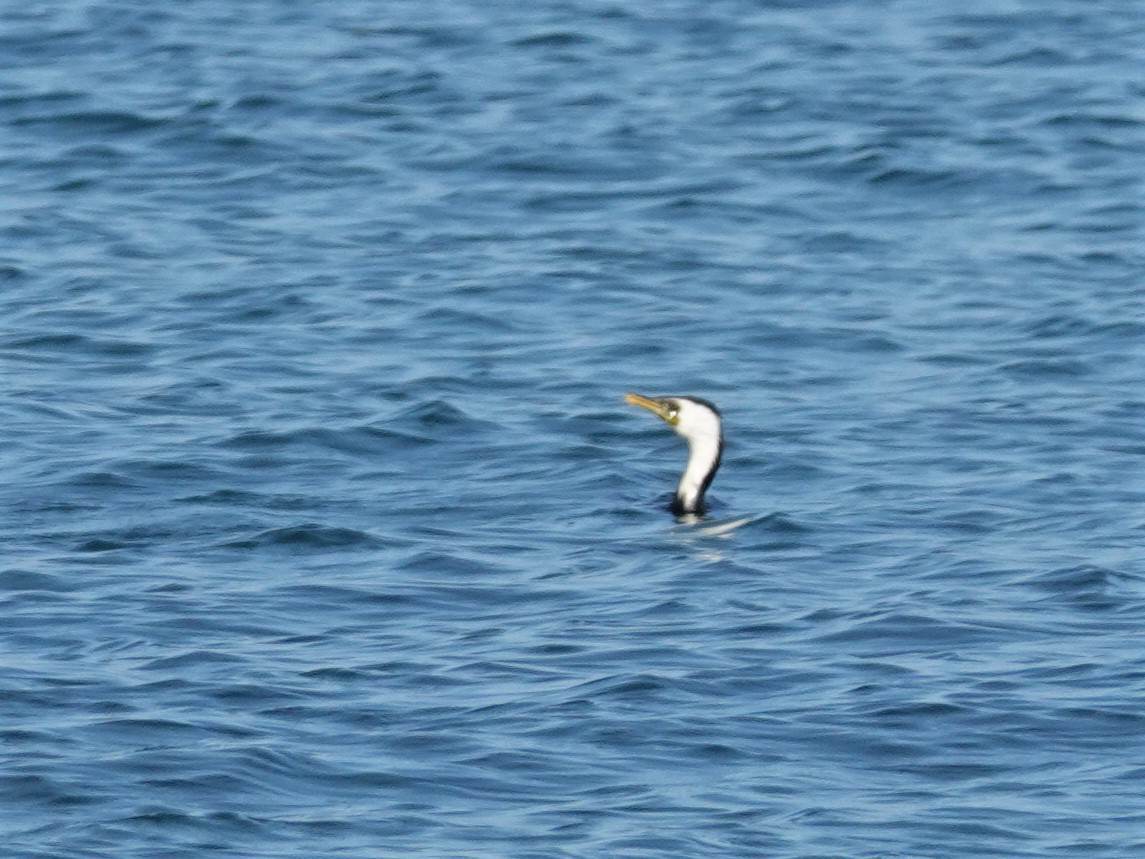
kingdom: Animalia
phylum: Chordata
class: Aves
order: Suliformes
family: Phalacrocoracidae
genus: Microcarbo
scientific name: Microcarbo melanoleucos
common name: Little pied cormorant
